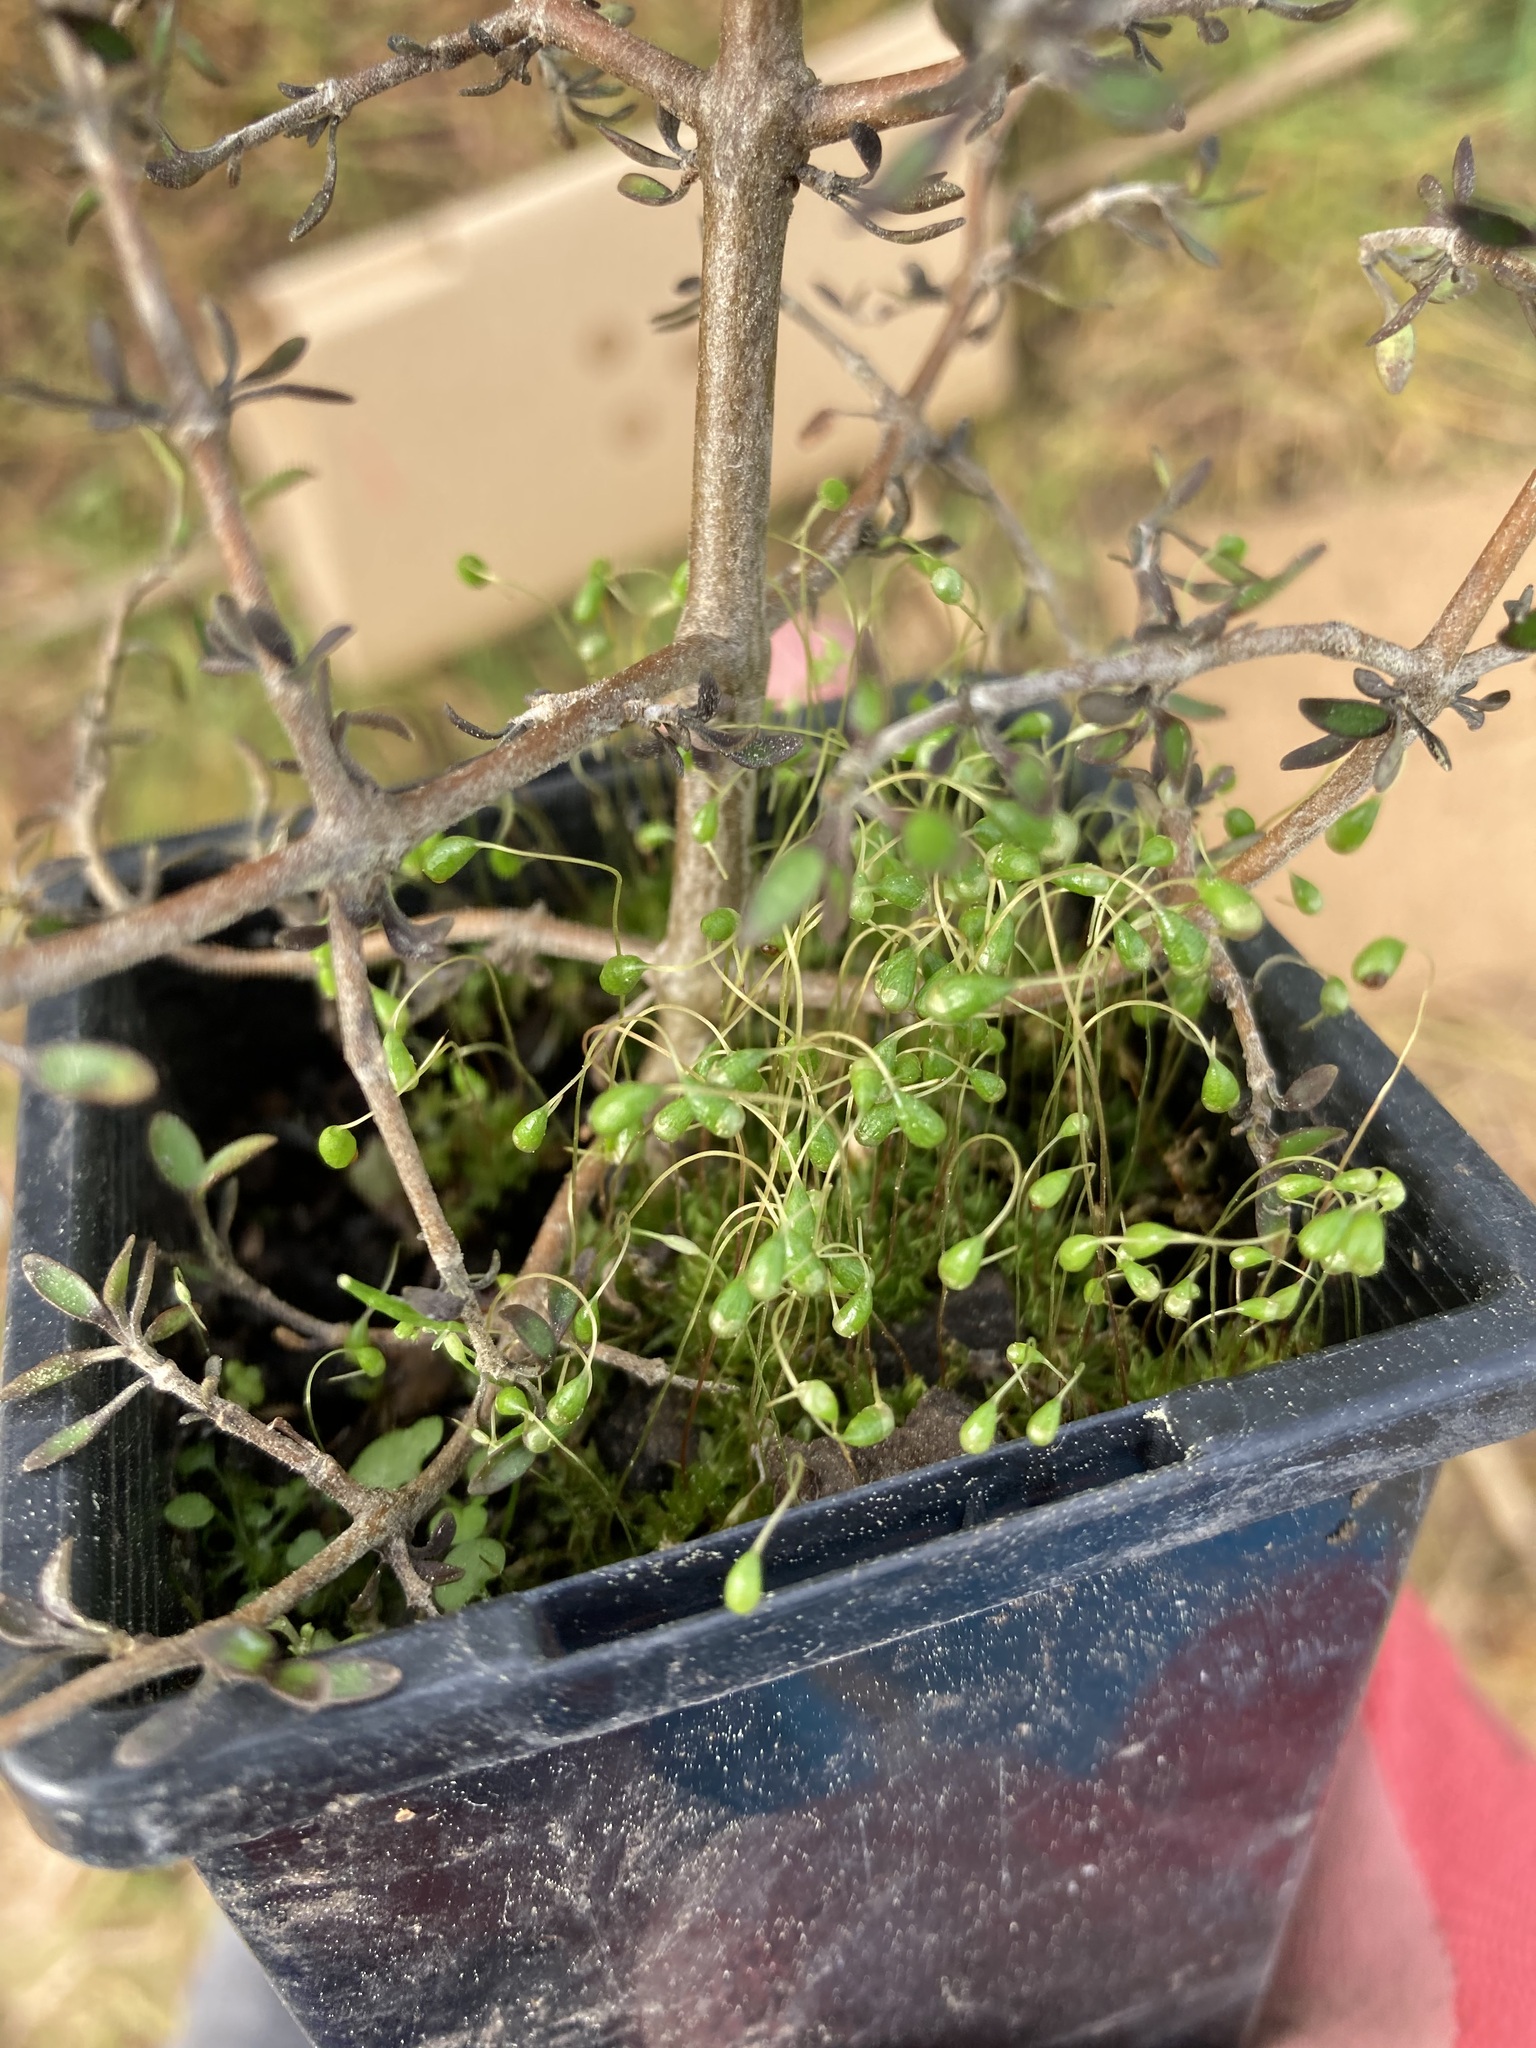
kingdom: Plantae
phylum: Bryophyta
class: Bryopsida
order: Funariales
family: Funariaceae
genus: Funaria
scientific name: Funaria hygrometrica
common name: Common cord moss
